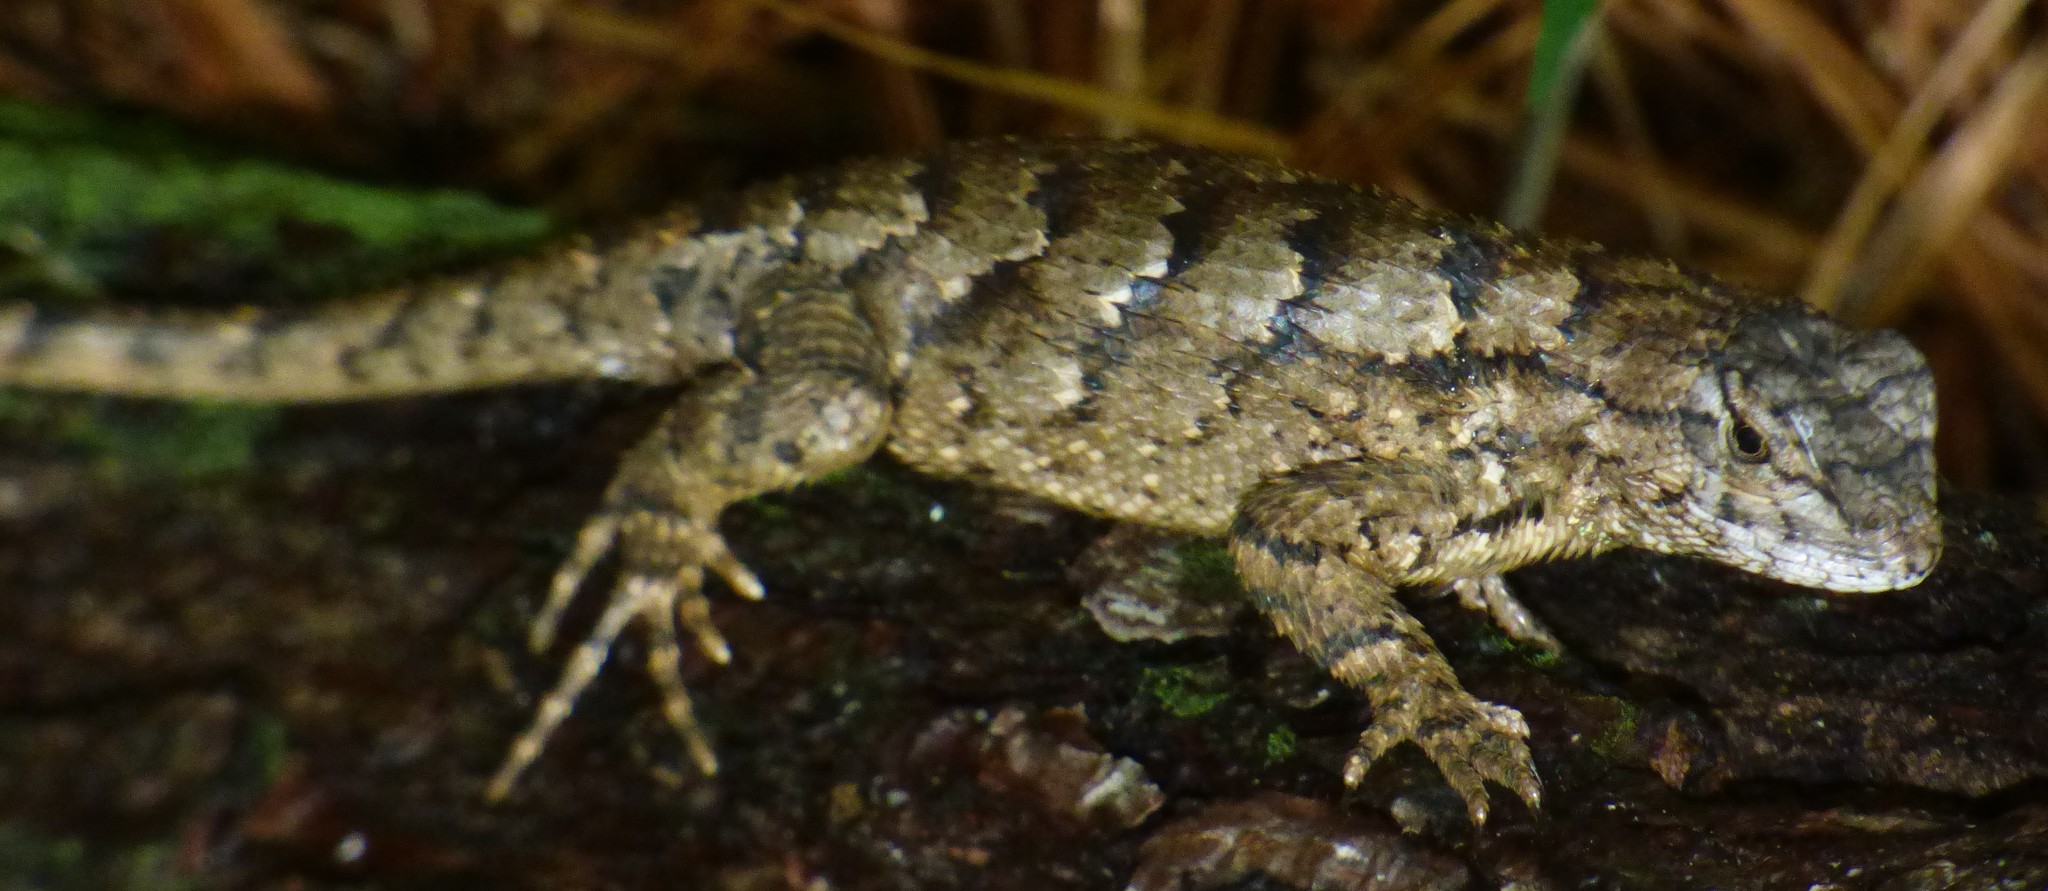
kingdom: Animalia
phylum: Chordata
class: Squamata
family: Phrynosomatidae
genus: Sceloporus
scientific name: Sceloporus undulatus
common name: Eastern fence lizard
